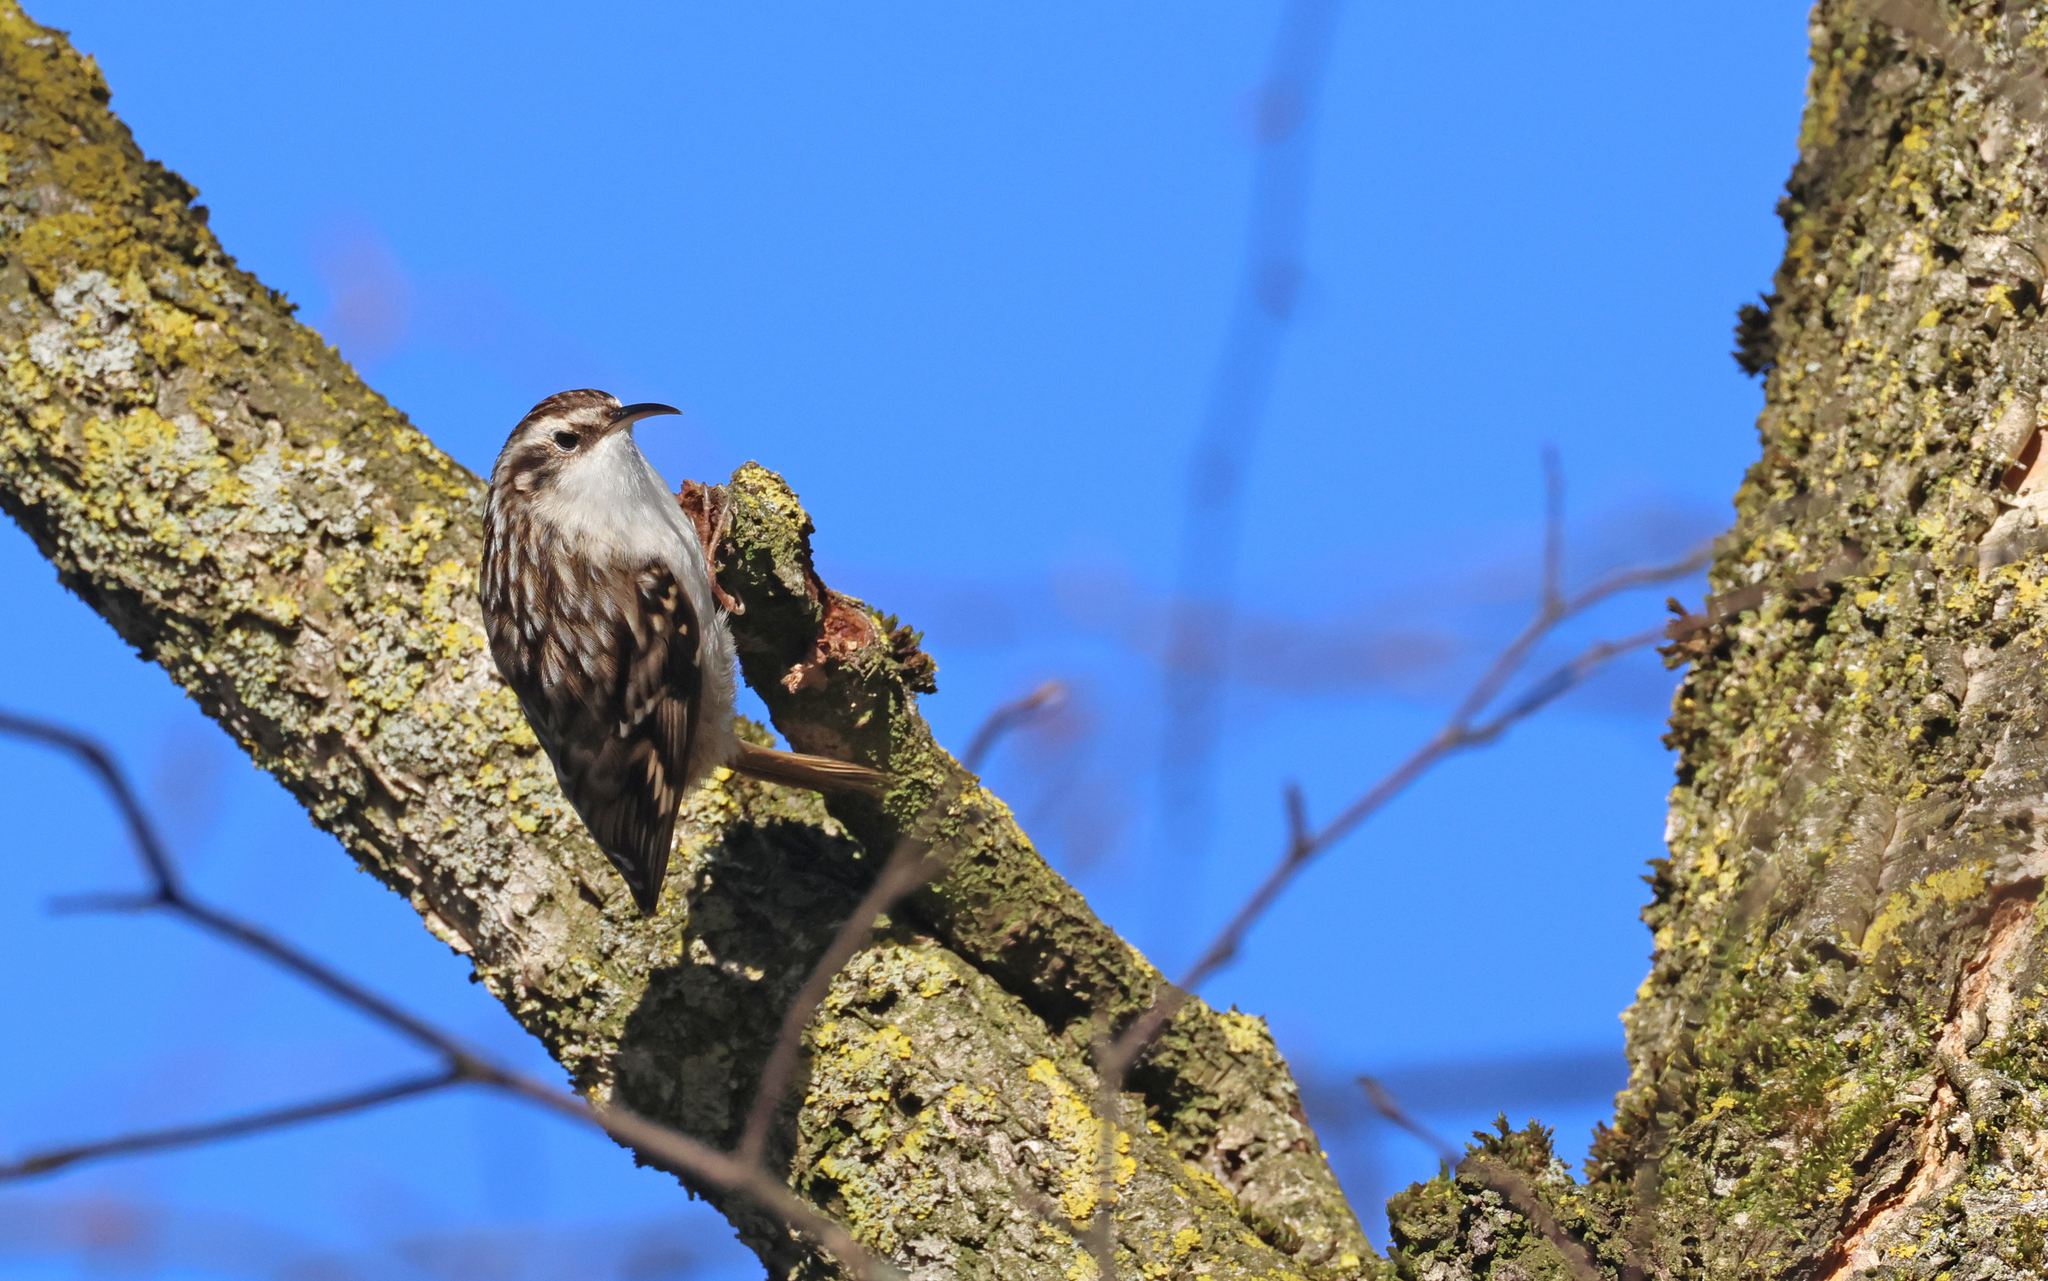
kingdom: Animalia
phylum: Chordata
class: Aves
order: Passeriformes
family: Certhiidae
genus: Certhia
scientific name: Certhia brachydactyla
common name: Short-toed treecreeper
